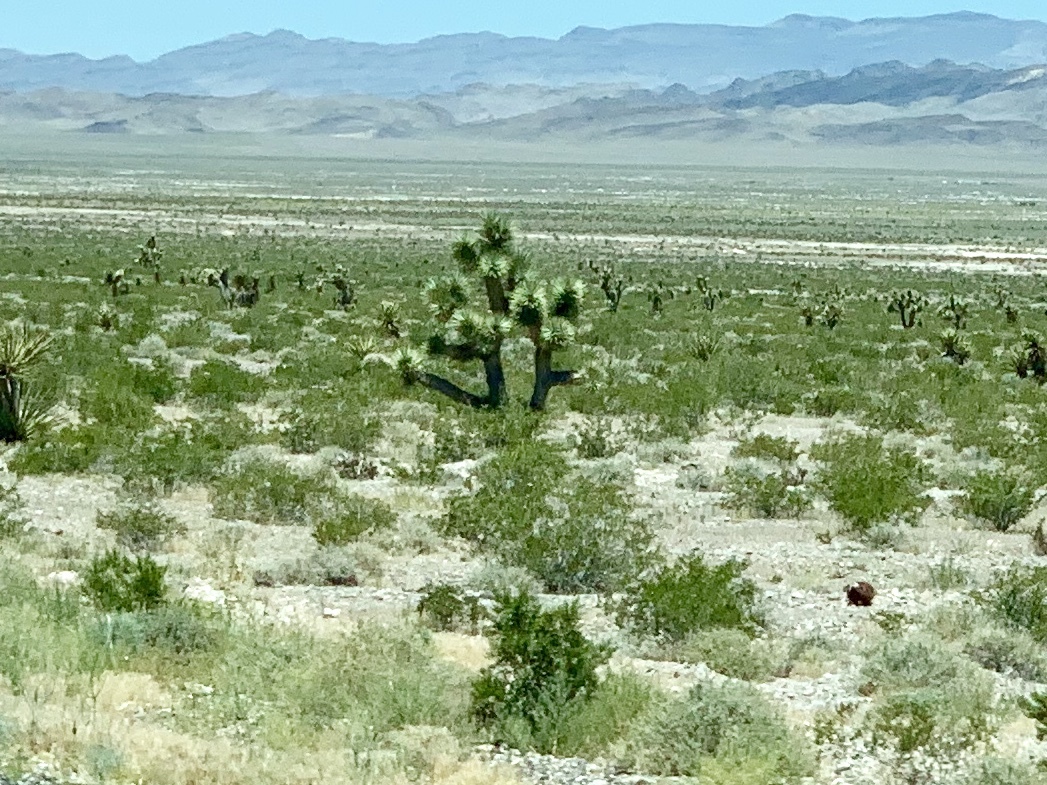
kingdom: Plantae
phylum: Tracheophyta
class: Liliopsida
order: Asparagales
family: Asparagaceae
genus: Yucca
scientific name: Yucca brevifolia
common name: Joshua tree
